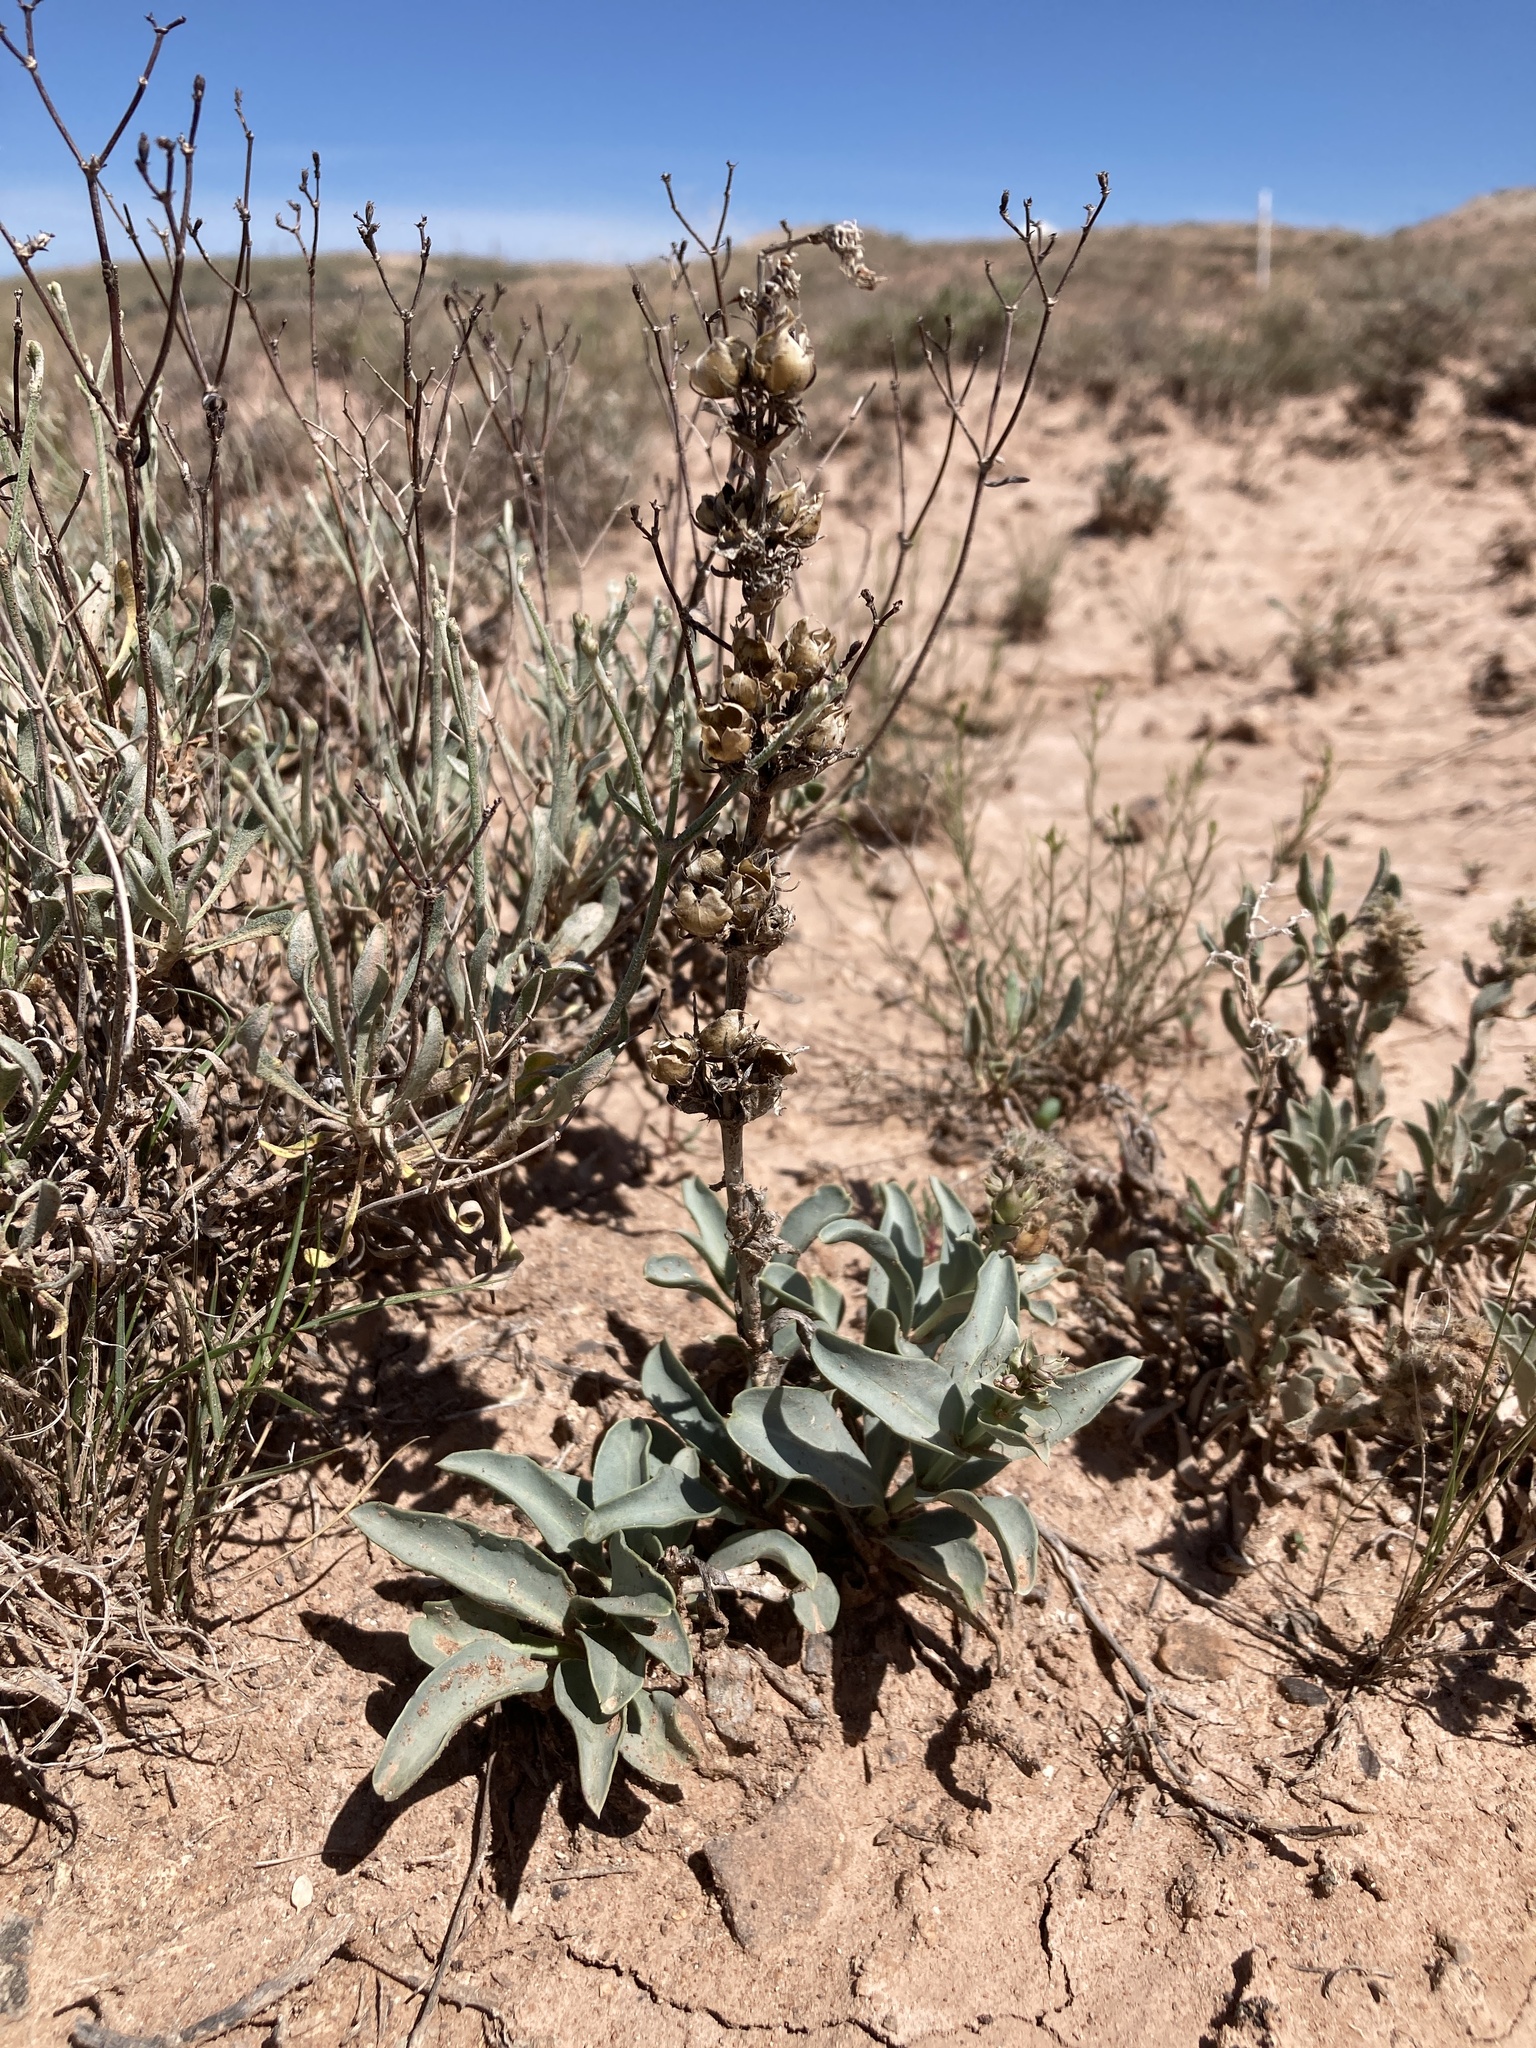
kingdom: Plantae
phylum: Tracheophyta
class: Magnoliopsida
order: Lamiales
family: Plantaginaceae
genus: Penstemon
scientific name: Penstemon nitidus
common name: Shining penstemon
